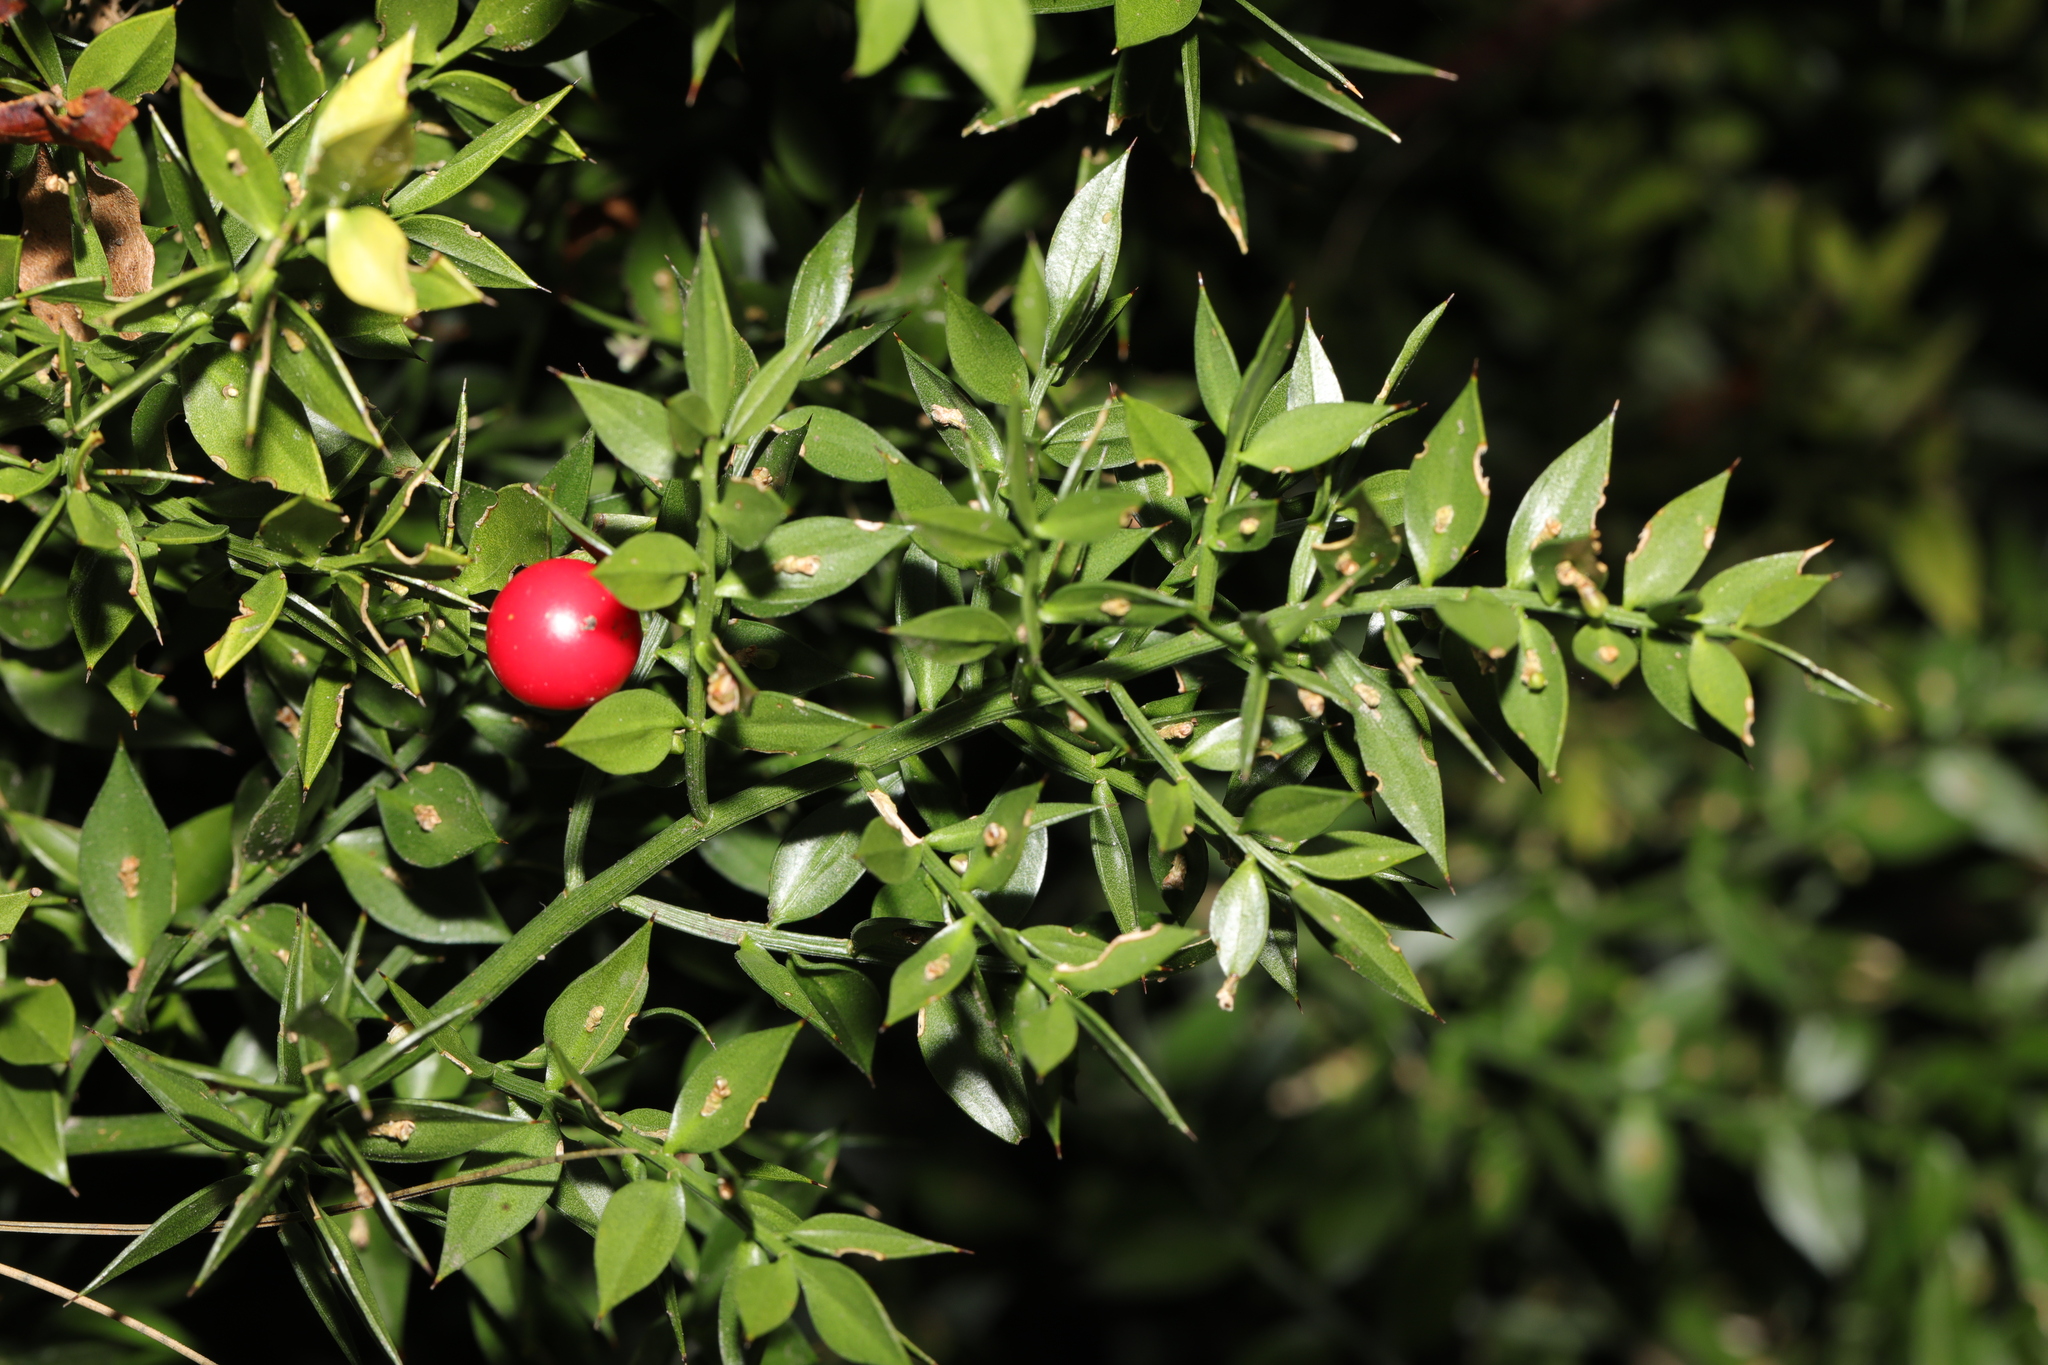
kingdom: Plantae
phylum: Tracheophyta
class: Liliopsida
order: Asparagales
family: Asparagaceae
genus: Ruscus
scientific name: Ruscus aculeatus
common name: Butcher's-broom
